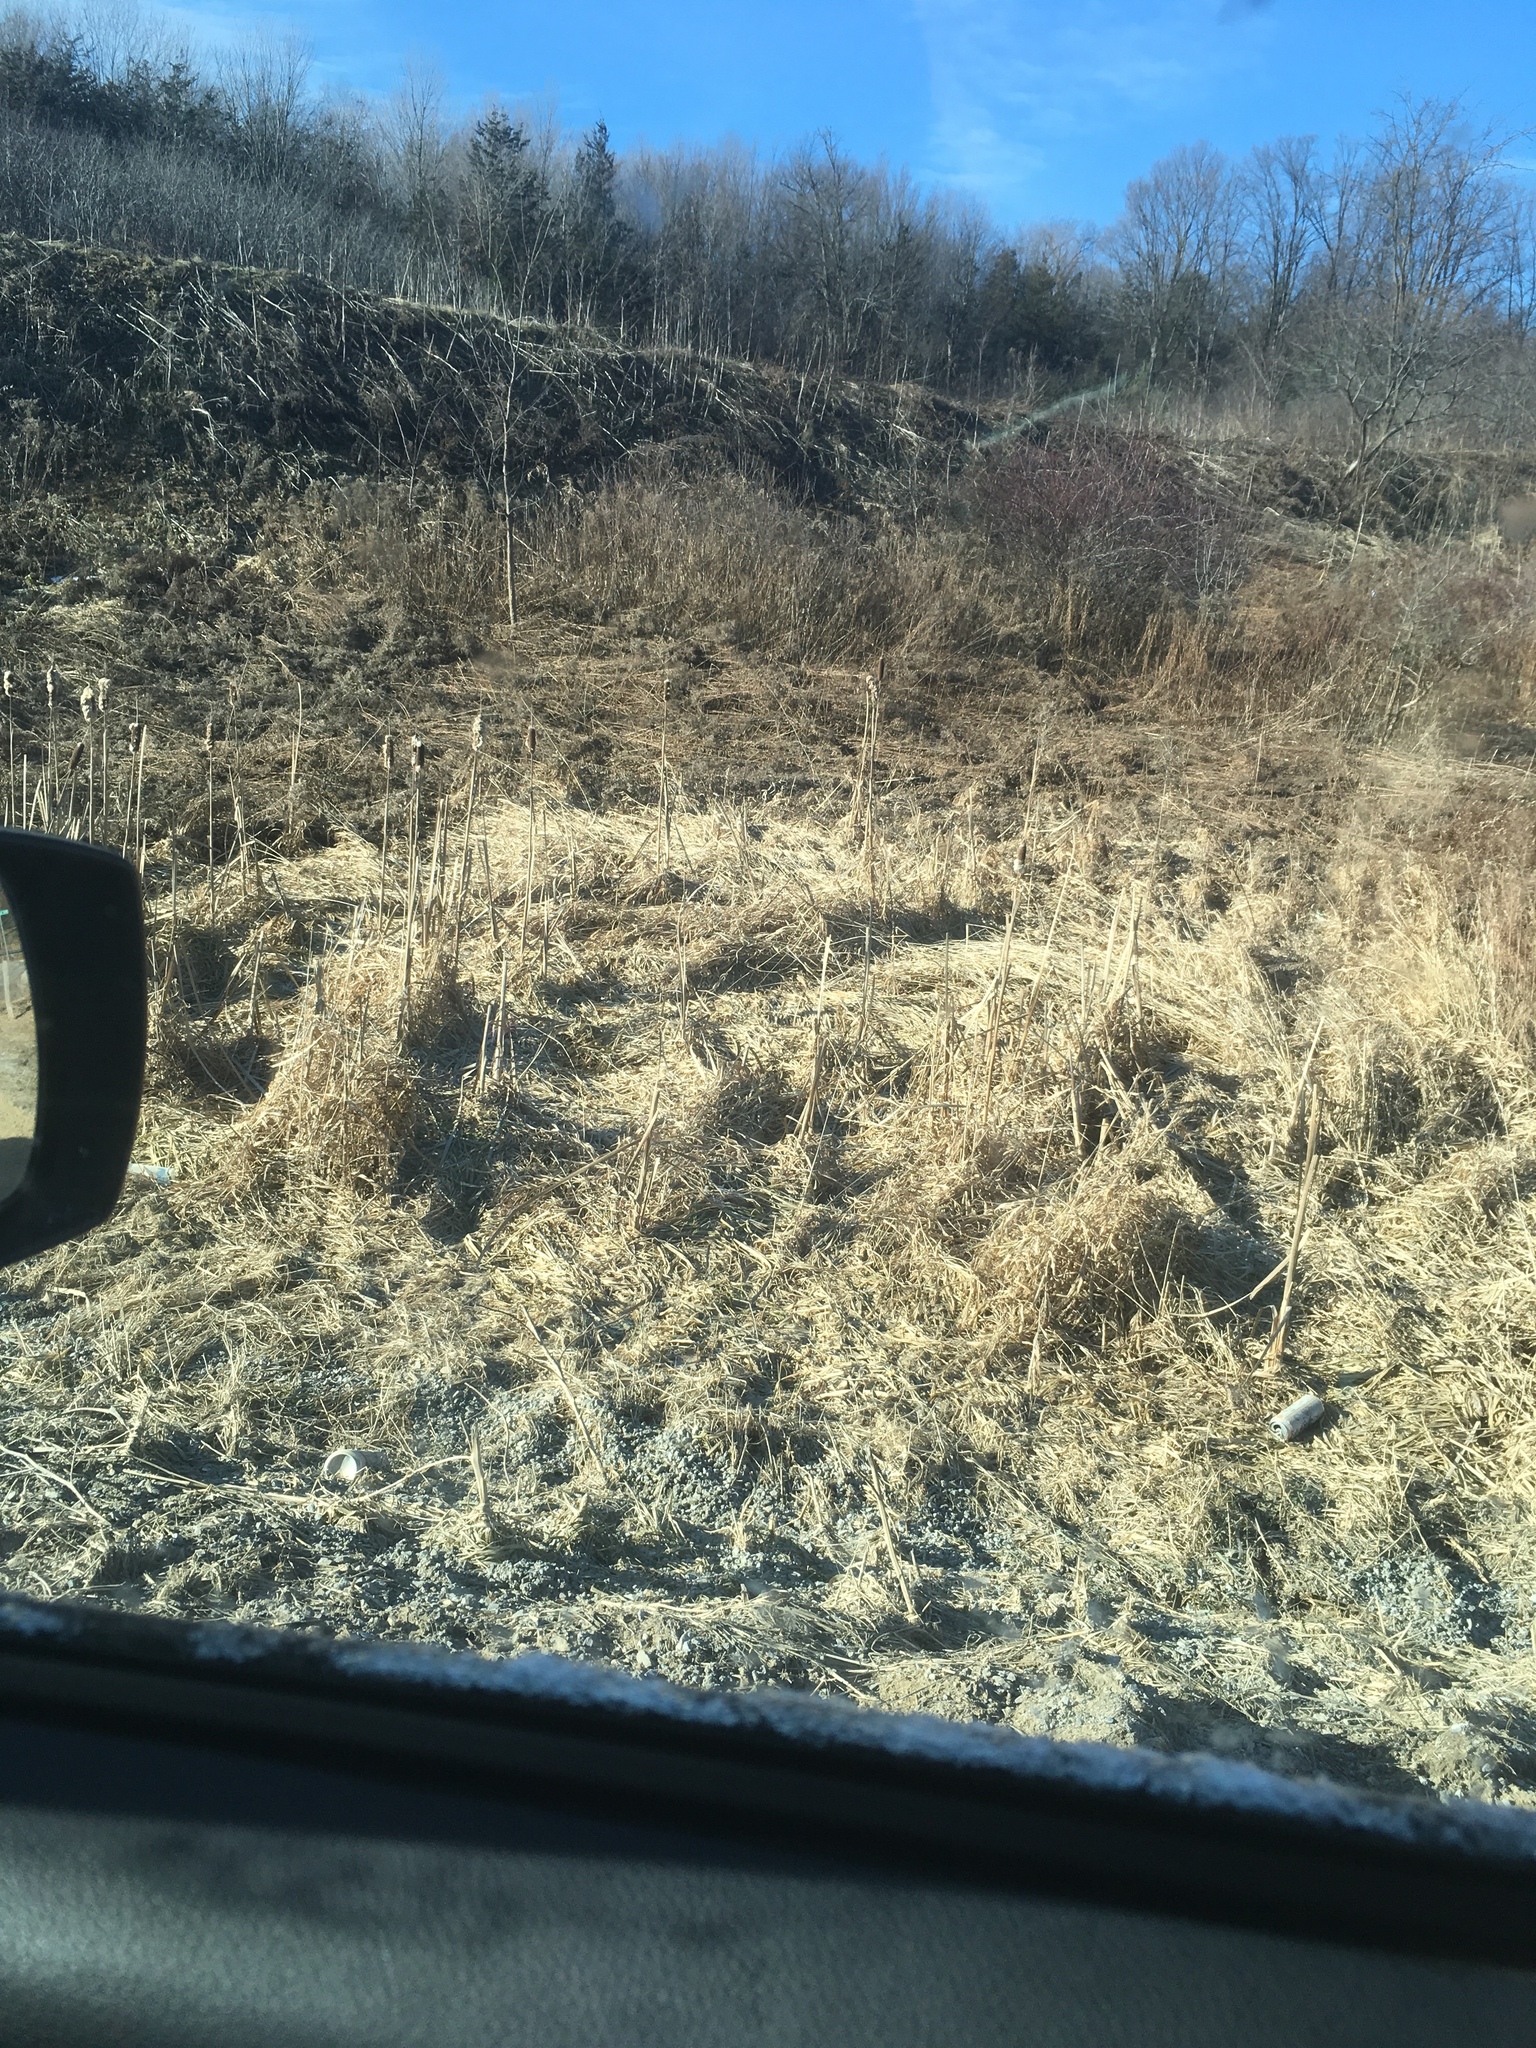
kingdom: Plantae
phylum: Tracheophyta
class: Liliopsida
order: Poales
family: Typhaceae
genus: Typha
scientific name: Typha
